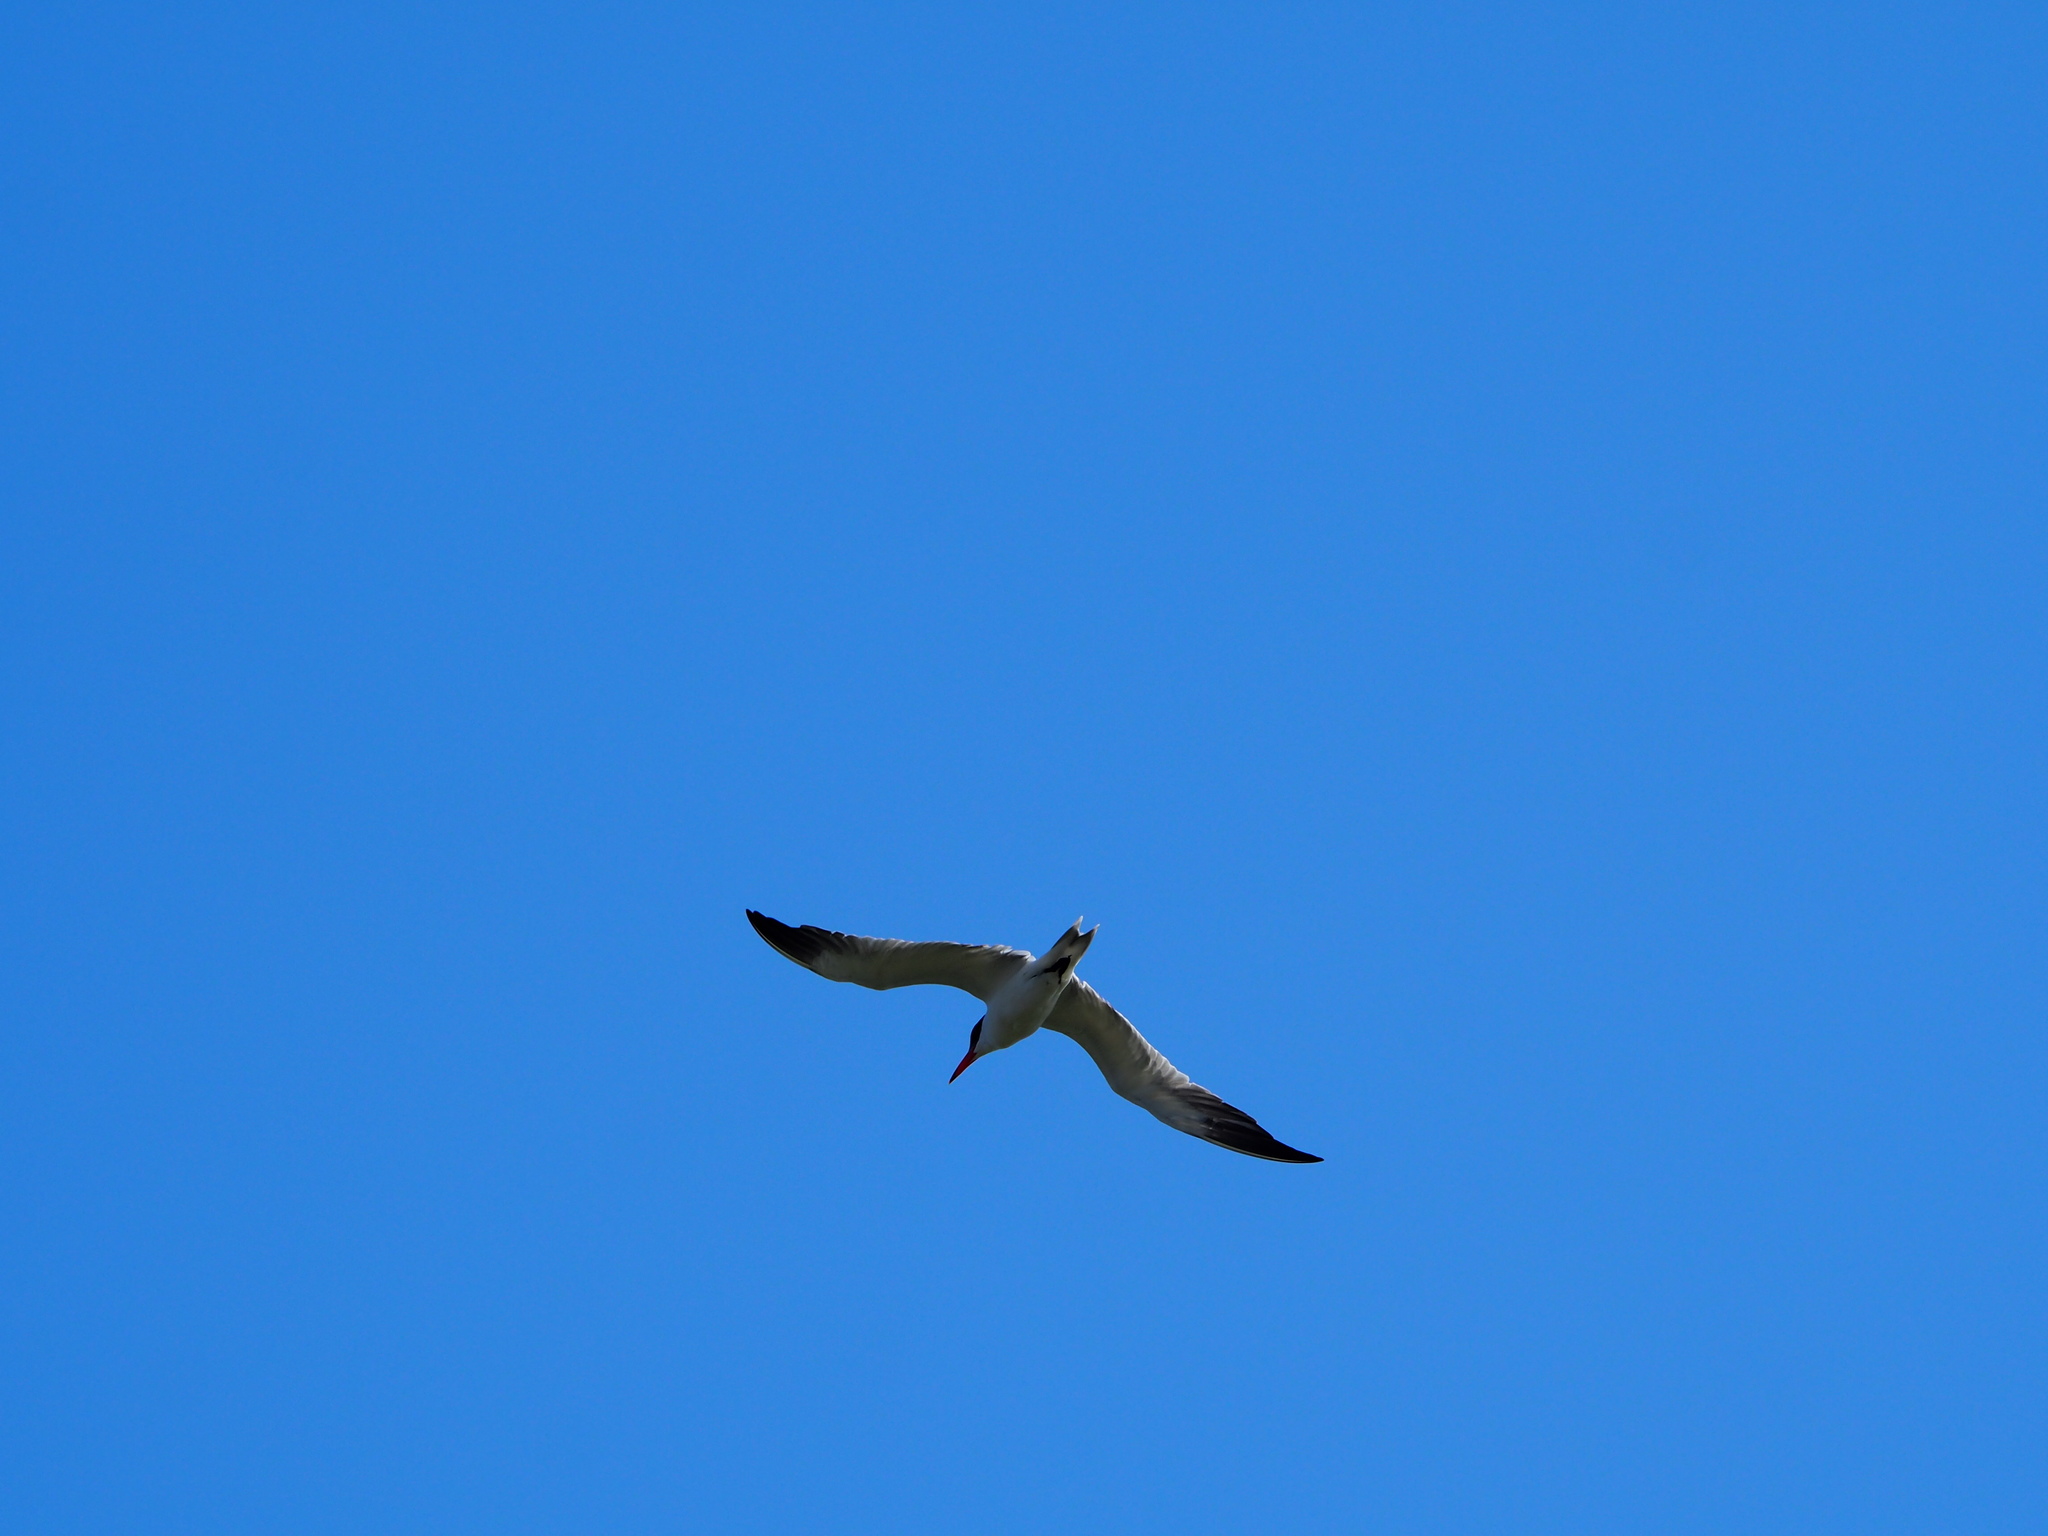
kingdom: Animalia
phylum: Chordata
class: Aves
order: Charadriiformes
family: Laridae
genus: Hydroprogne
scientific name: Hydroprogne caspia
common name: Caspian tern
